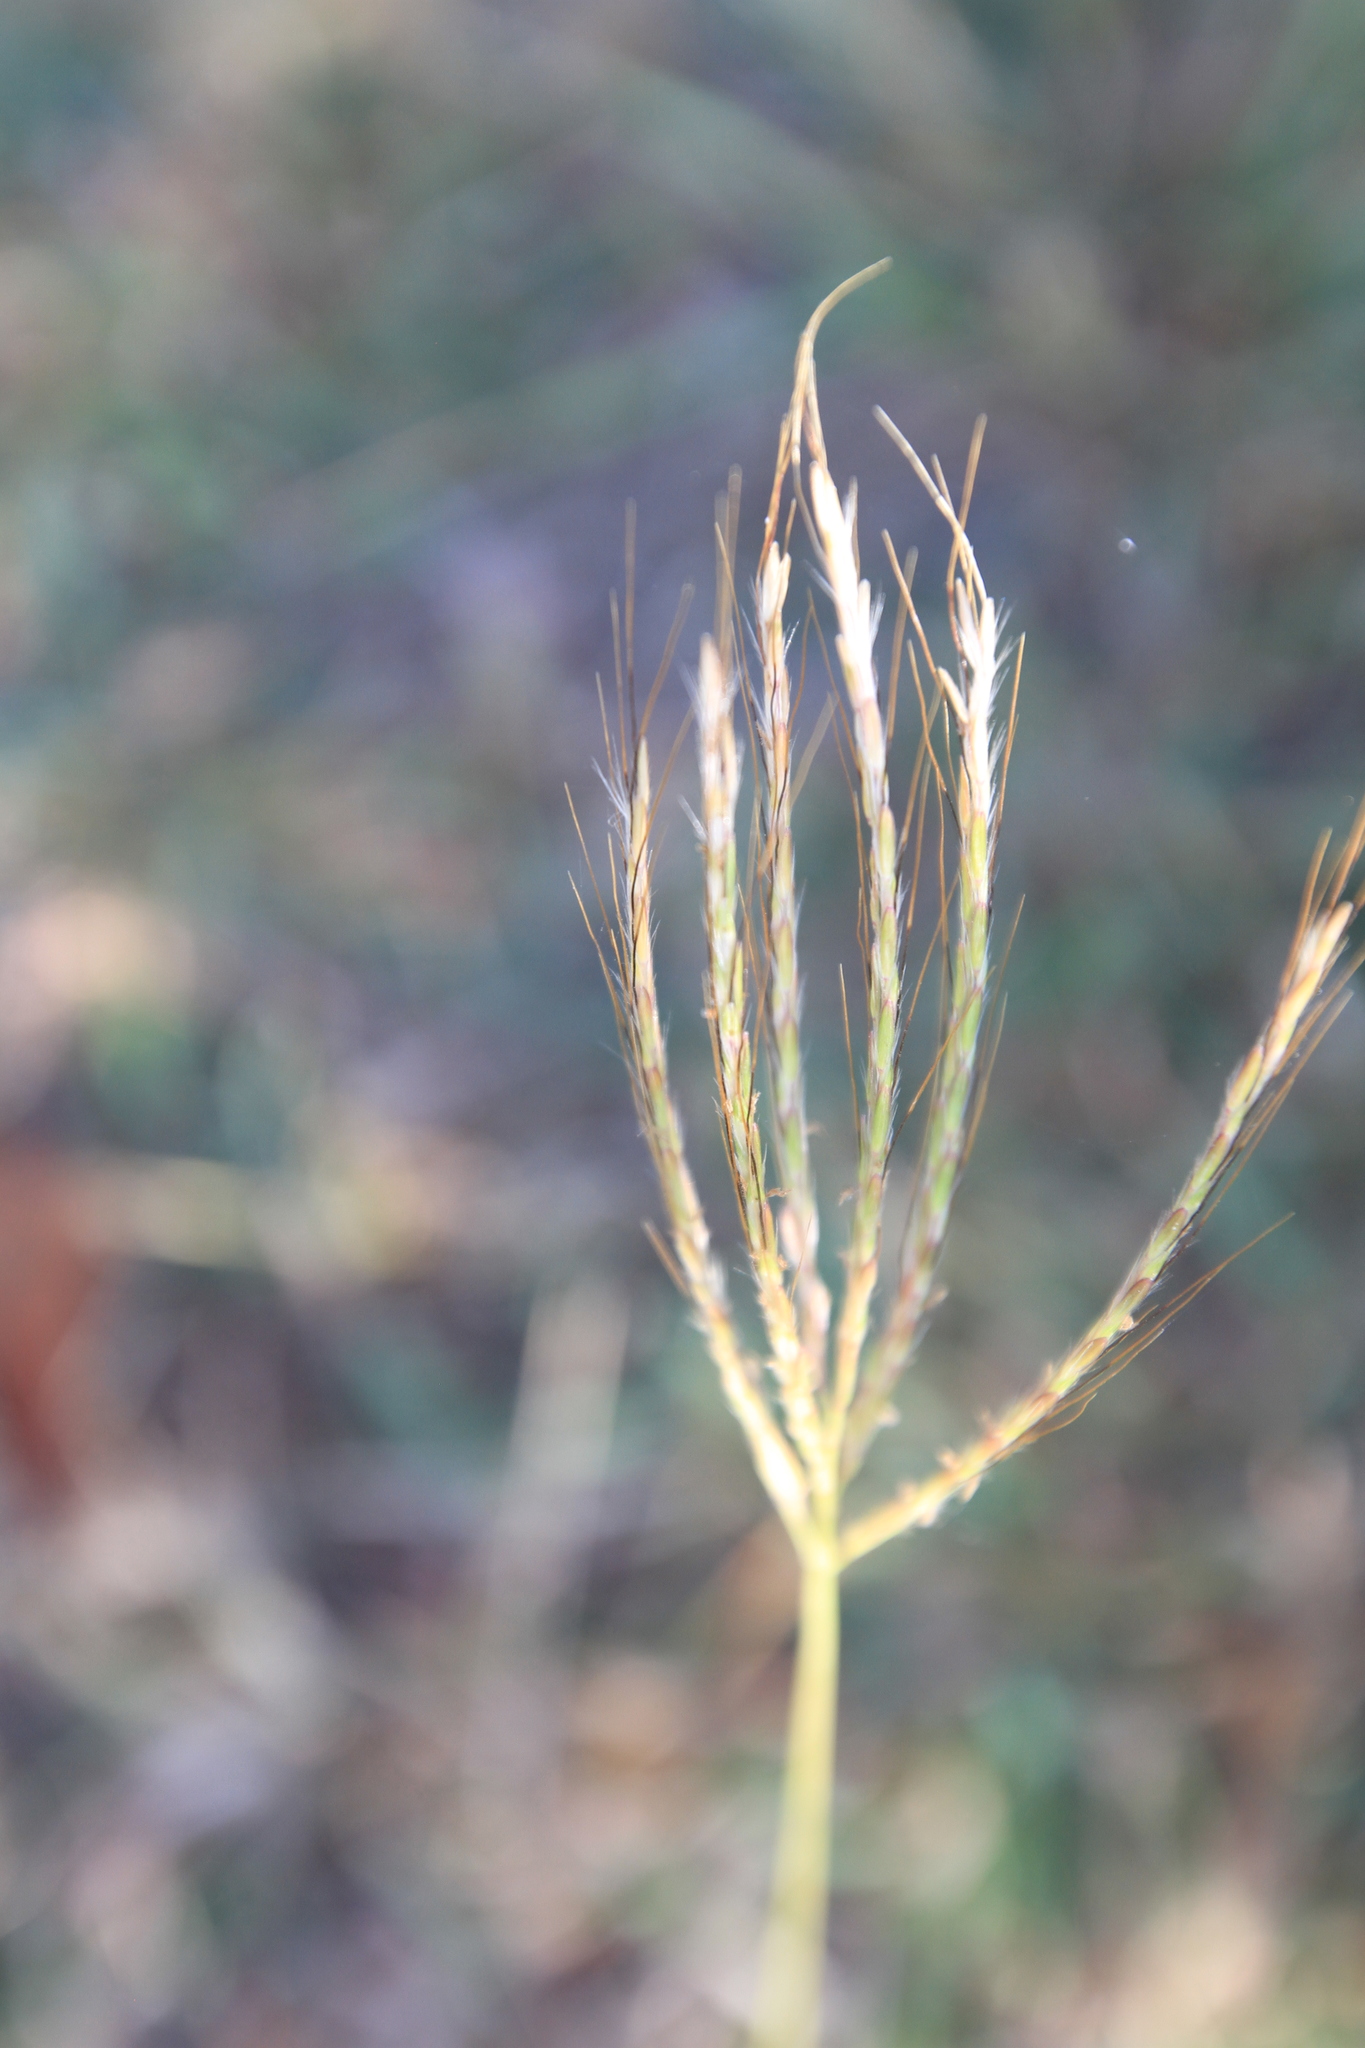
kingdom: Plantae
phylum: Tracheophyta
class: Liliopsida
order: Poales
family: Poaceae
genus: Dichanthium
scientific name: Dichanthium annulatum
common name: Kleberg's bluestem
